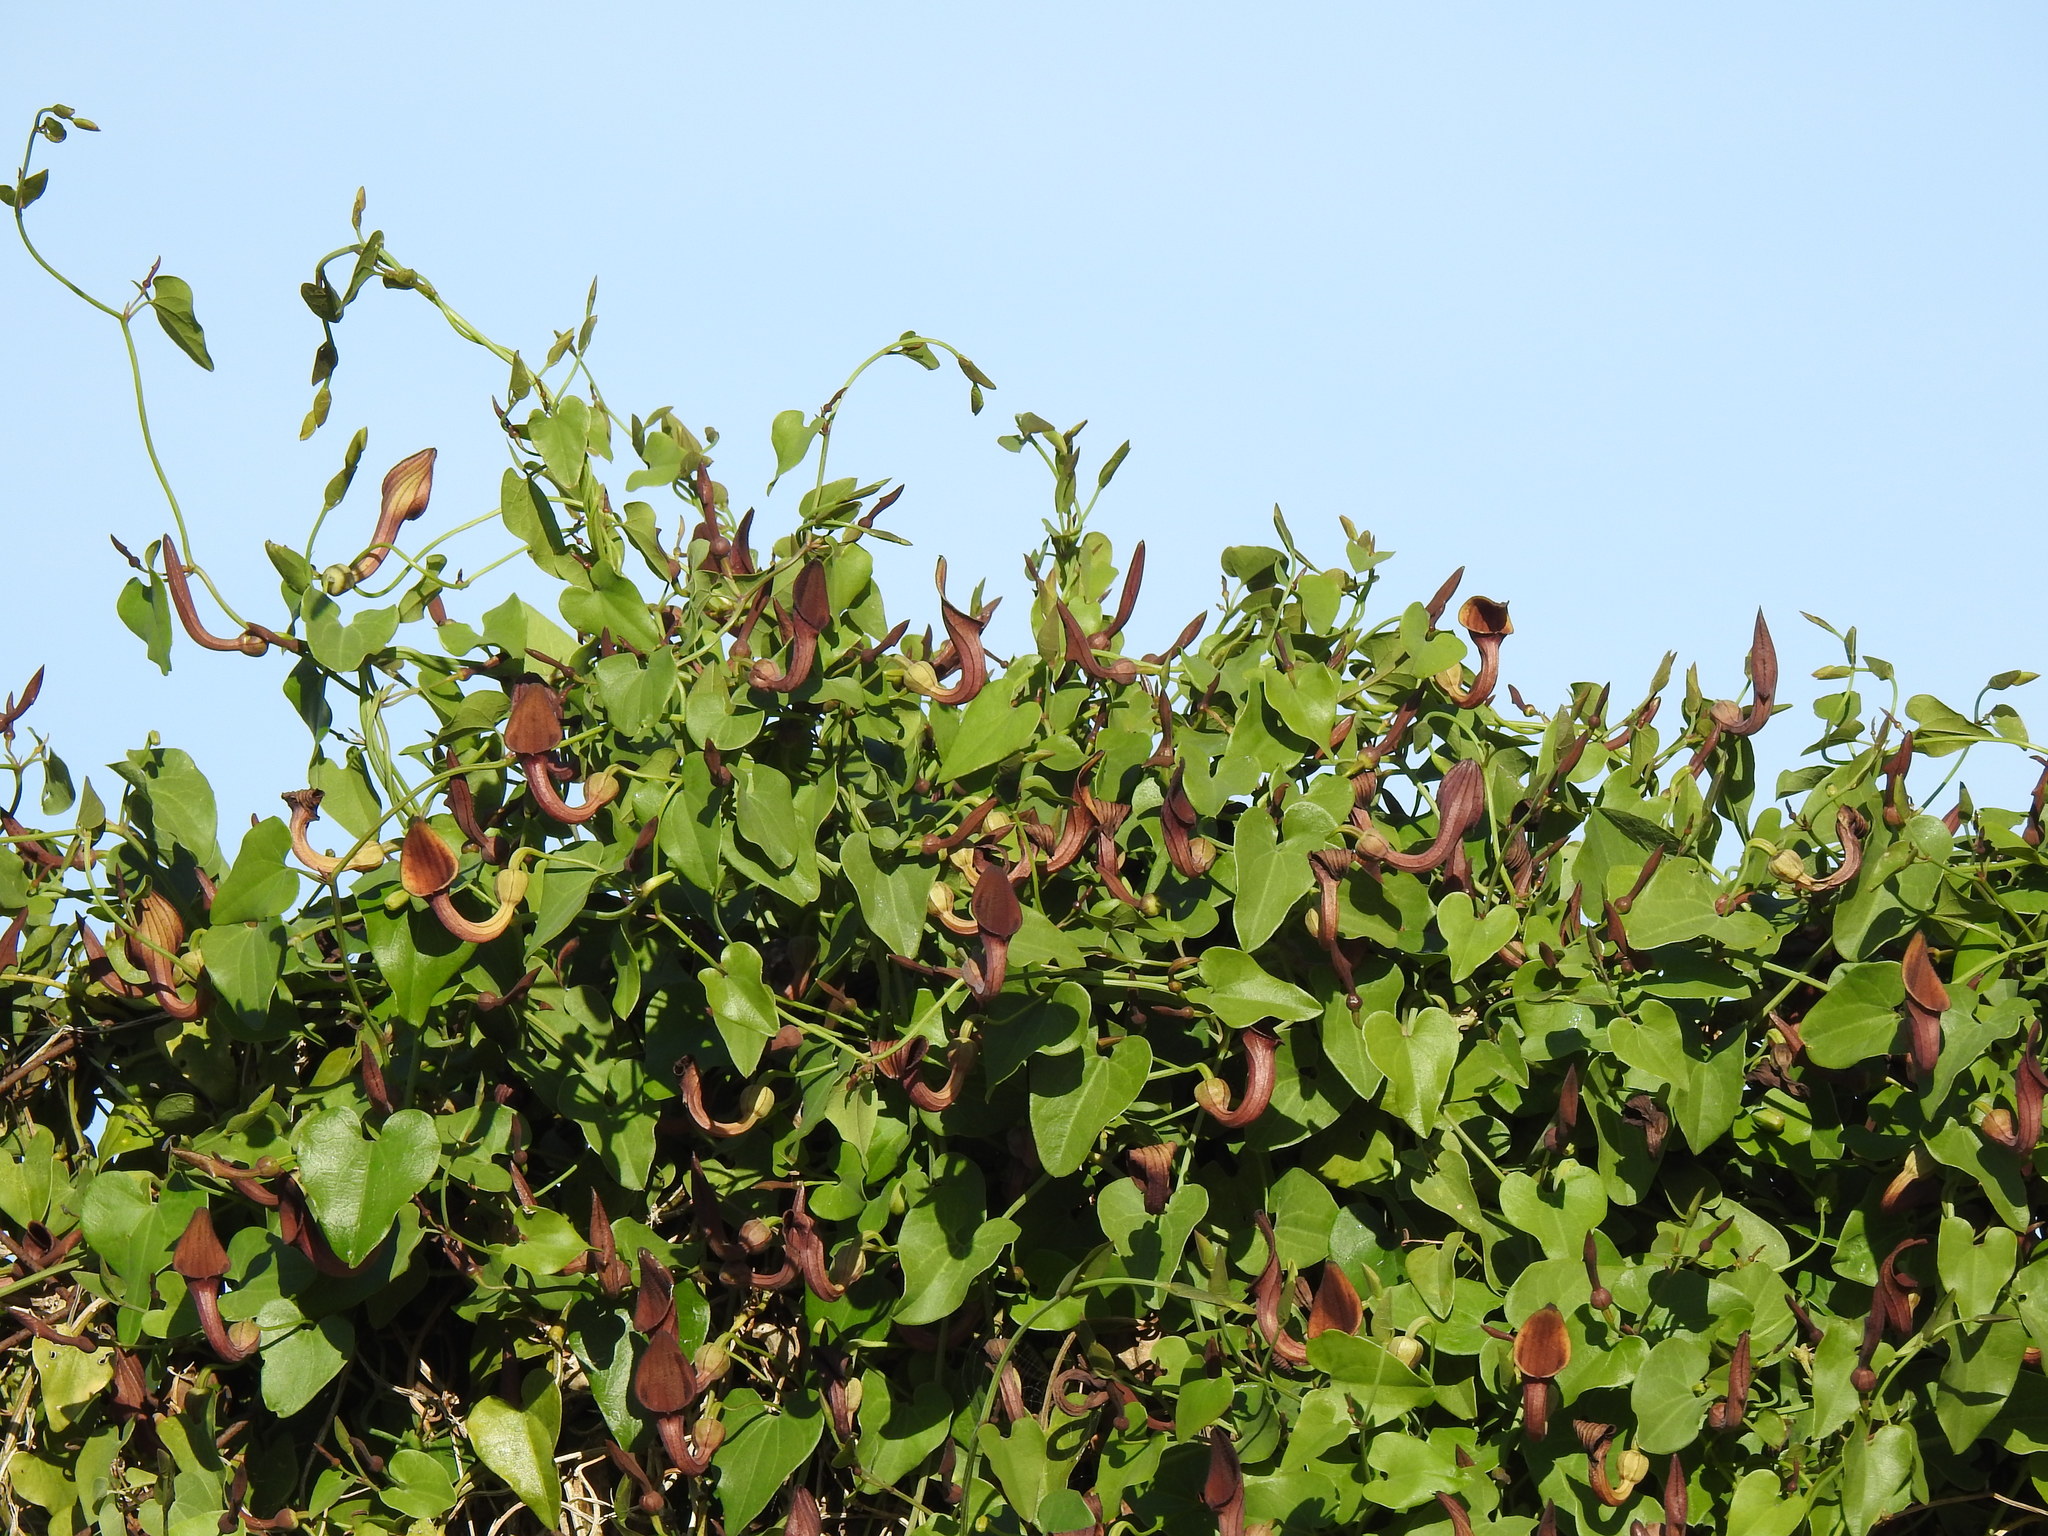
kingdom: Plantae
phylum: Tracheophyta
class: Magnoliopsida
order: Piperales
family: Aristolochiaceae
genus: Aristolochia
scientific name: Aristolochia baetica
